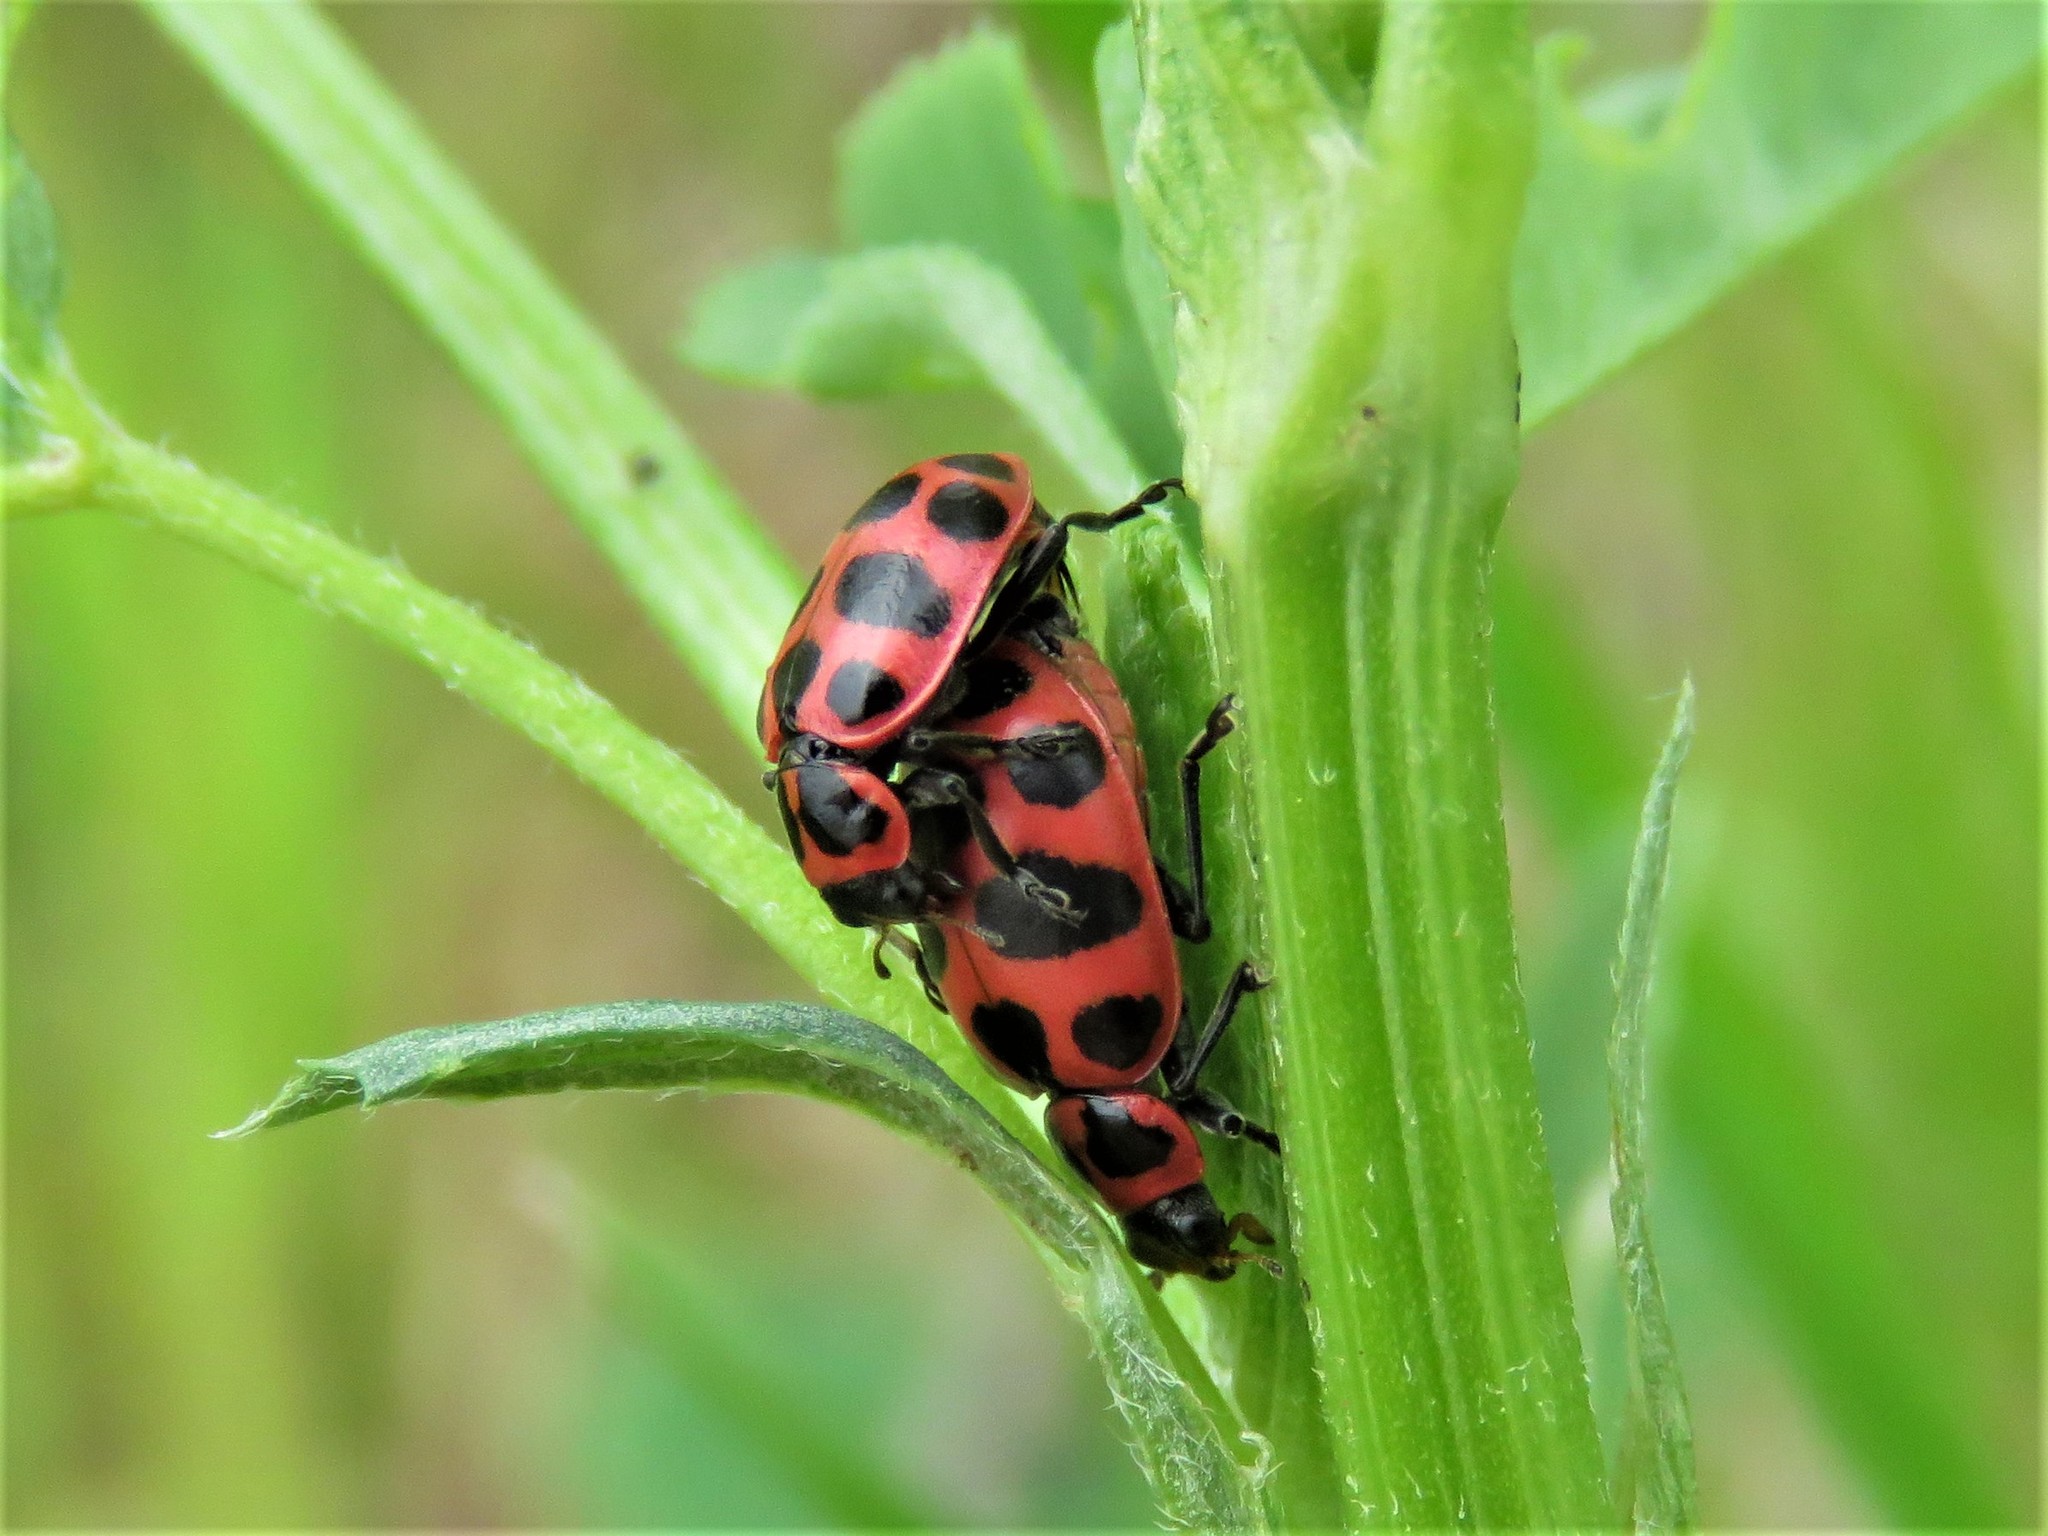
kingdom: Animalia
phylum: Arthropoda
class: Insecta
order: Coleoptera
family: Coccinellidae
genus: Coleomegilla
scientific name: Coleomegilla maculata
